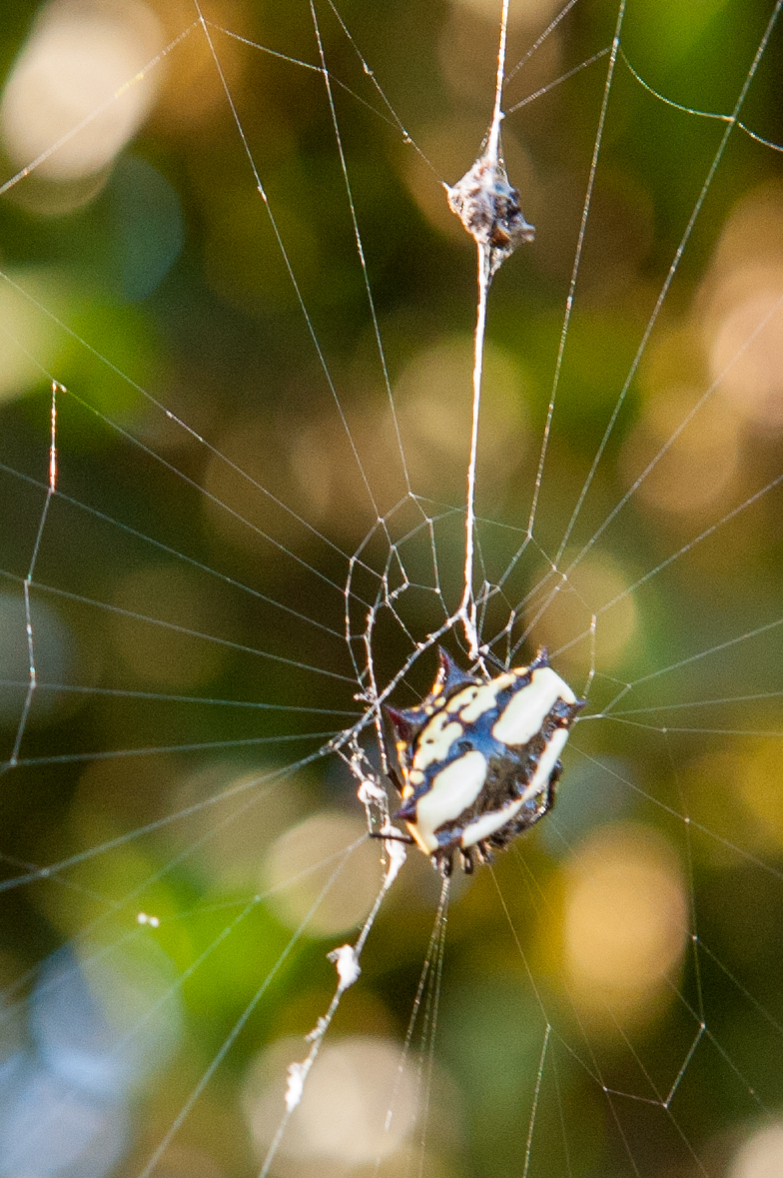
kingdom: Animalia
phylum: Arthropoda
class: Arachnida
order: Araneae
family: Araneidae
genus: Gasteracantha
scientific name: Gasteracantha cancriformis
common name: Orb weavers
